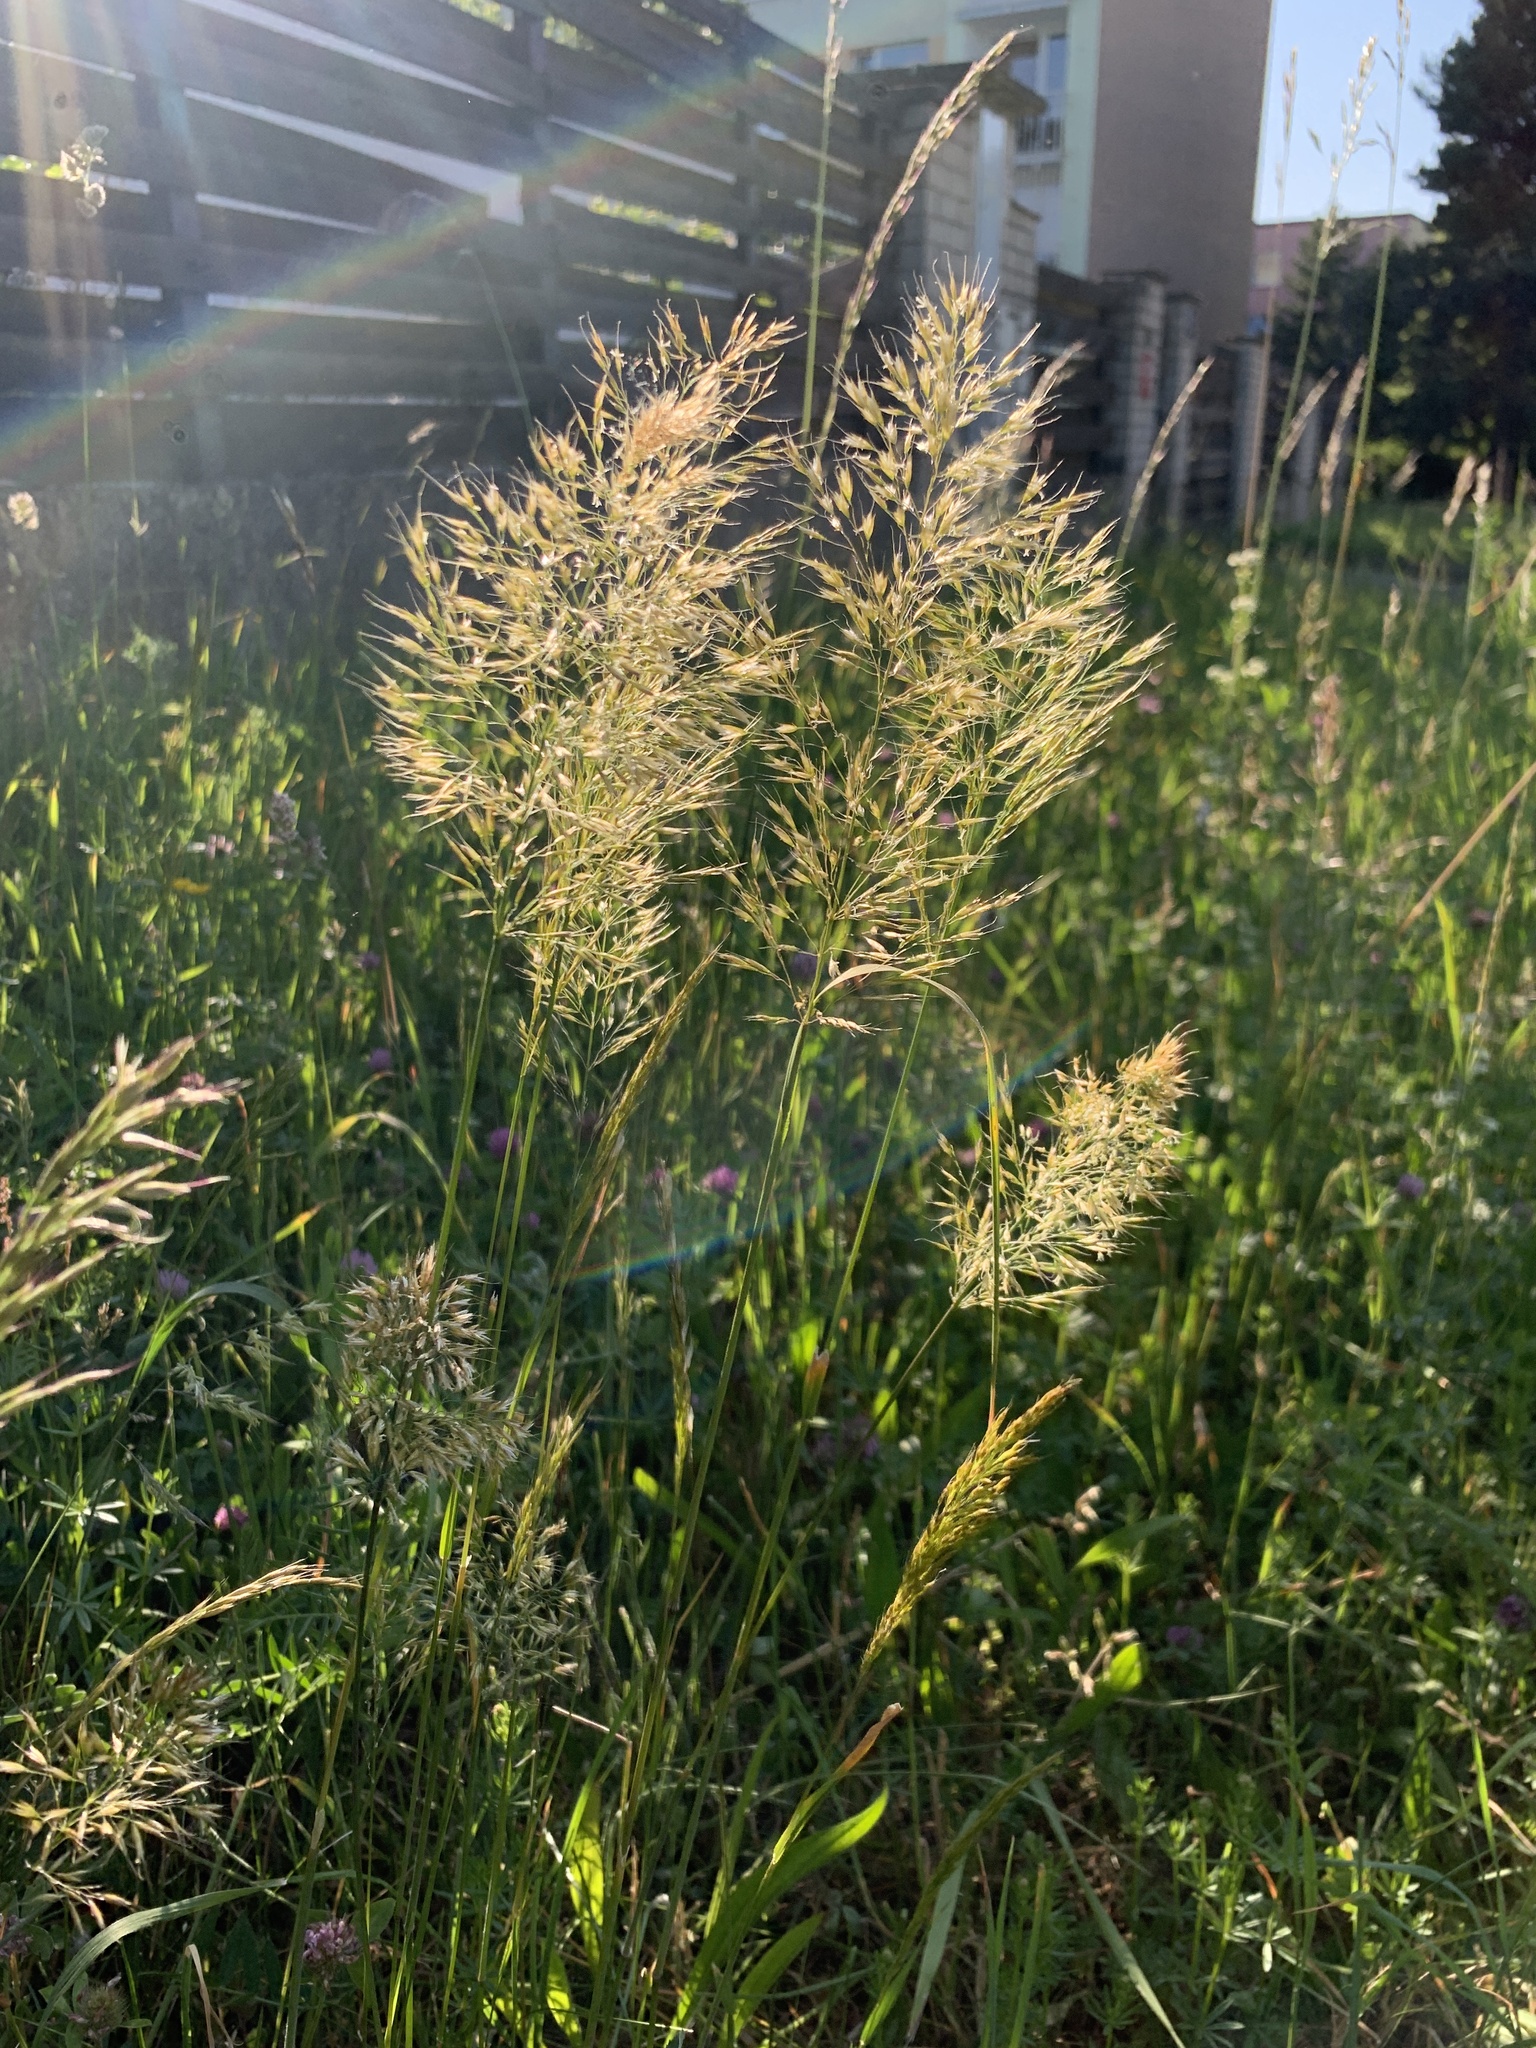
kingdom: Plantae
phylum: Tracheophyta
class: Liliopsida
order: Poales
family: Poaceae
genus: Trisetum
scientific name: Trisetum flavescens
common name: Yellow oat-grass
